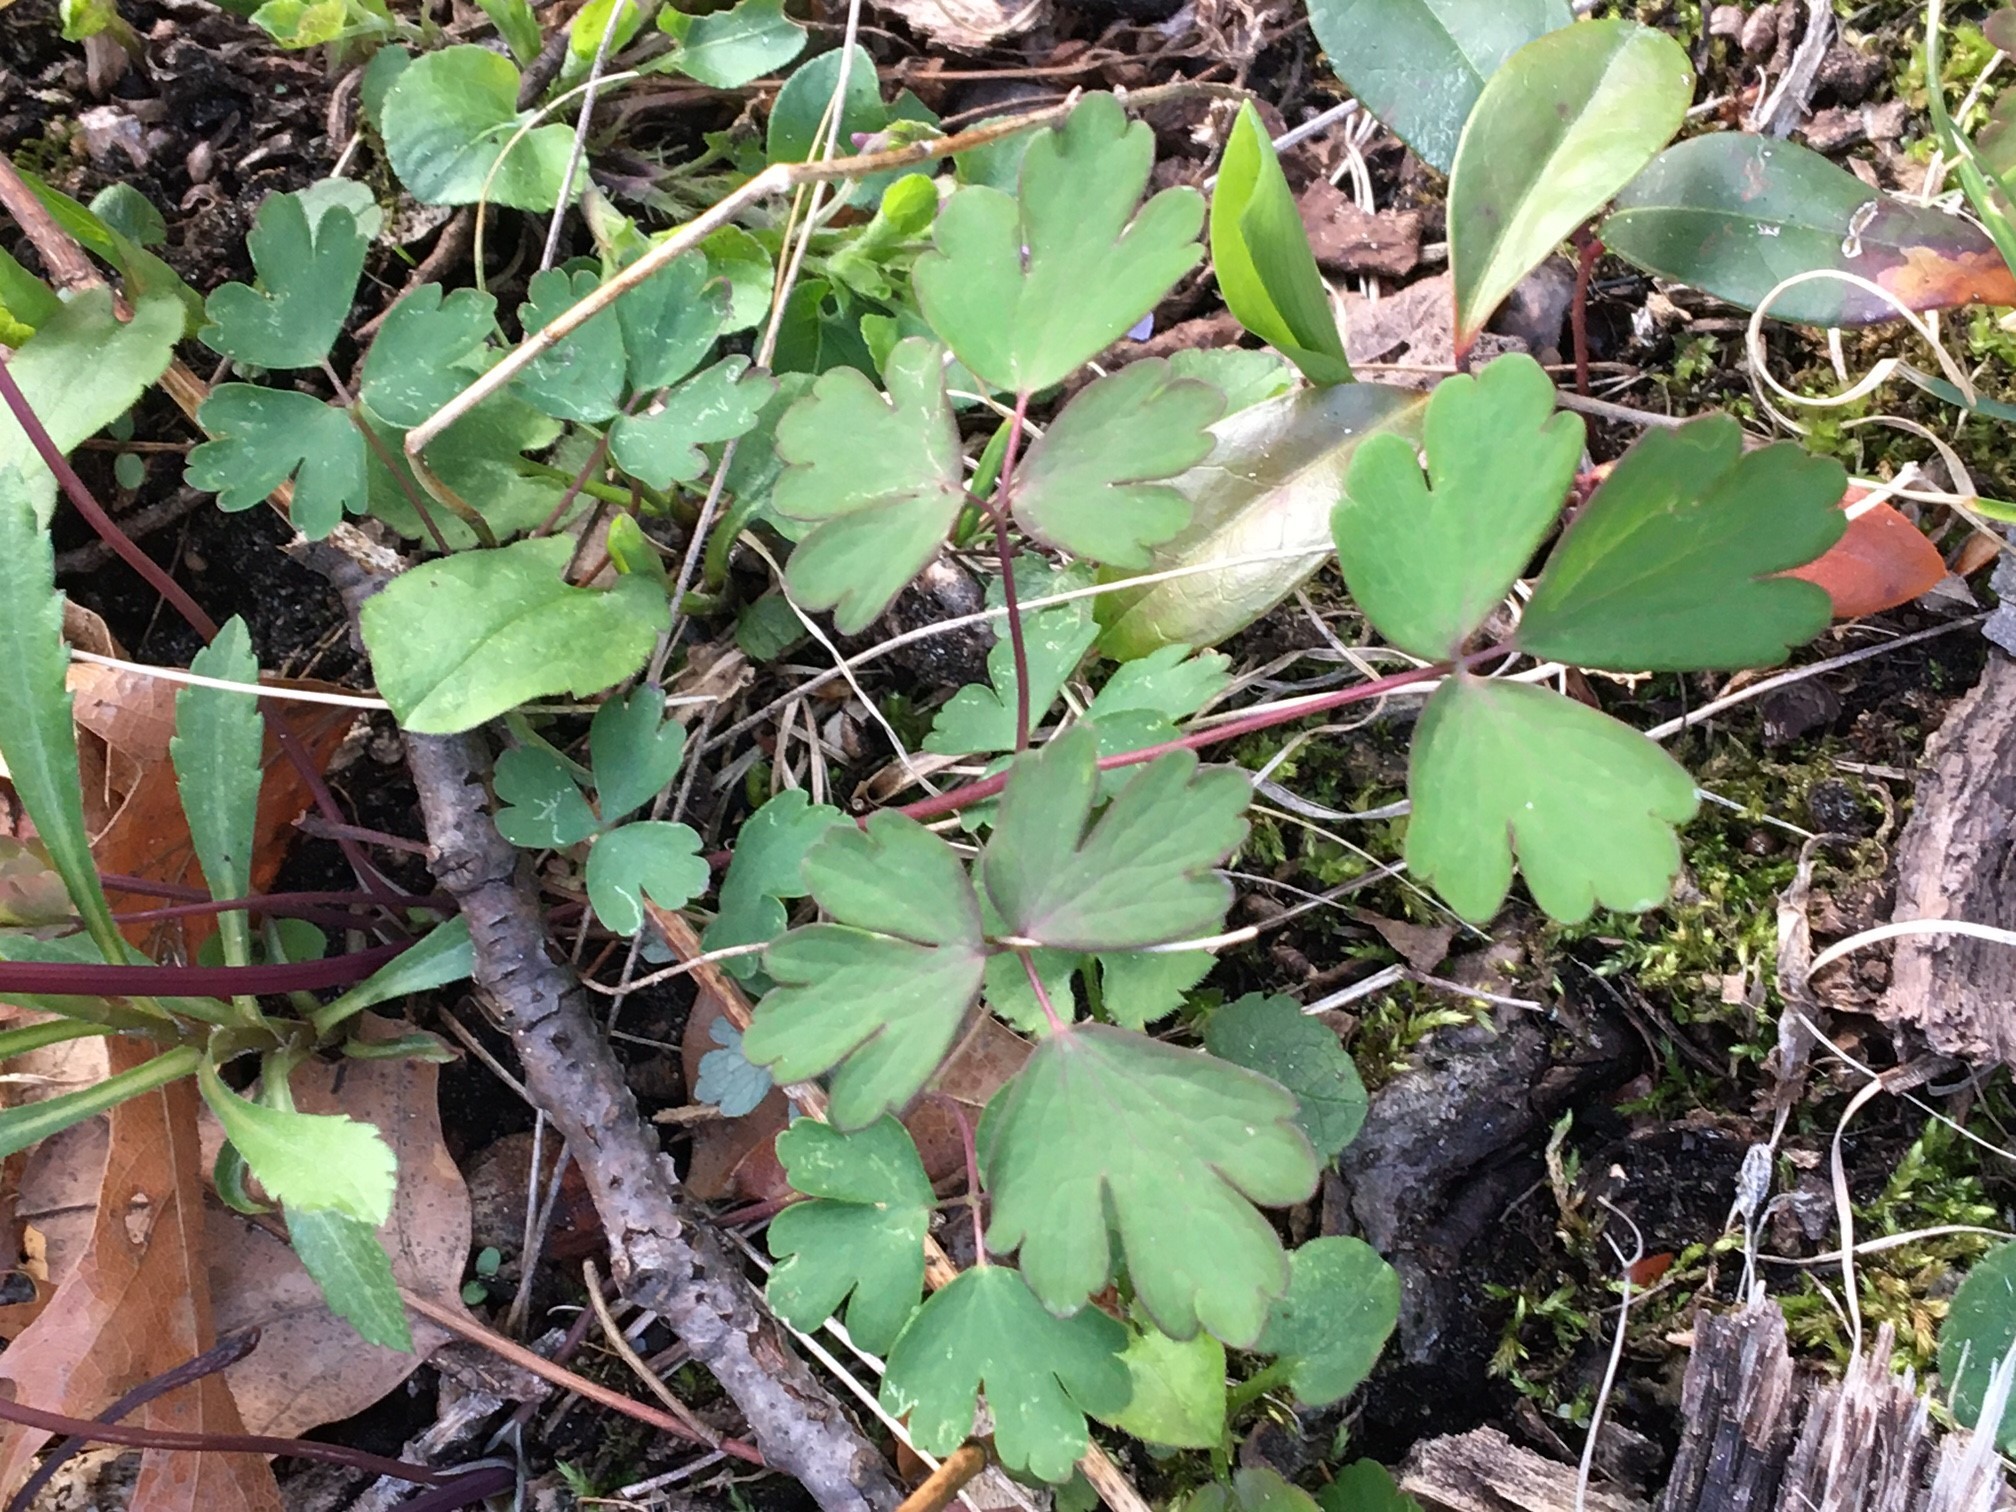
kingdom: Plantae
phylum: Tracheophyta
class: Magnoliopsida
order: Ranunculales
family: Ranunculaceae
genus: Aquilegia
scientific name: Aquilegia canadensis
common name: American columbine
